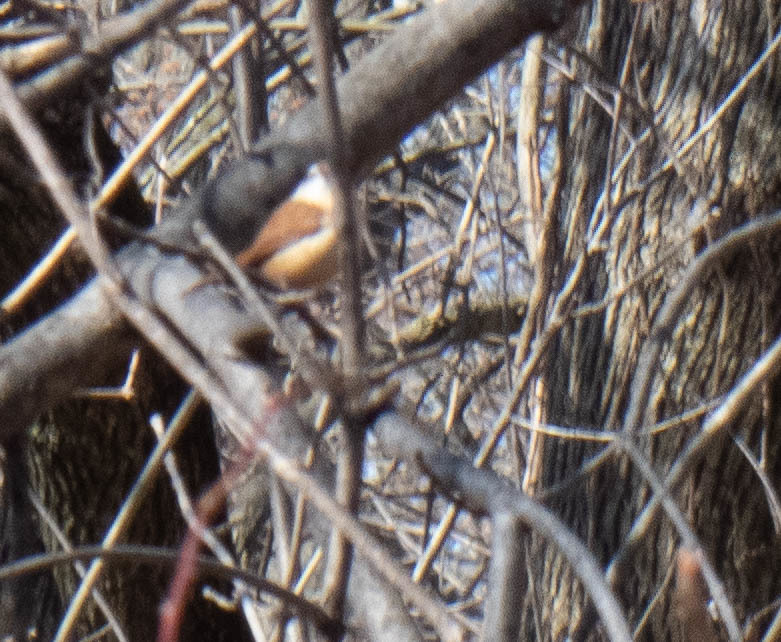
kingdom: Animalia
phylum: Chordata
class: Aves
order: Passeriformes
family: Troglodytidae
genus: Thryothorus
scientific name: Thryothorus ludovicianus
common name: Carolina wren
